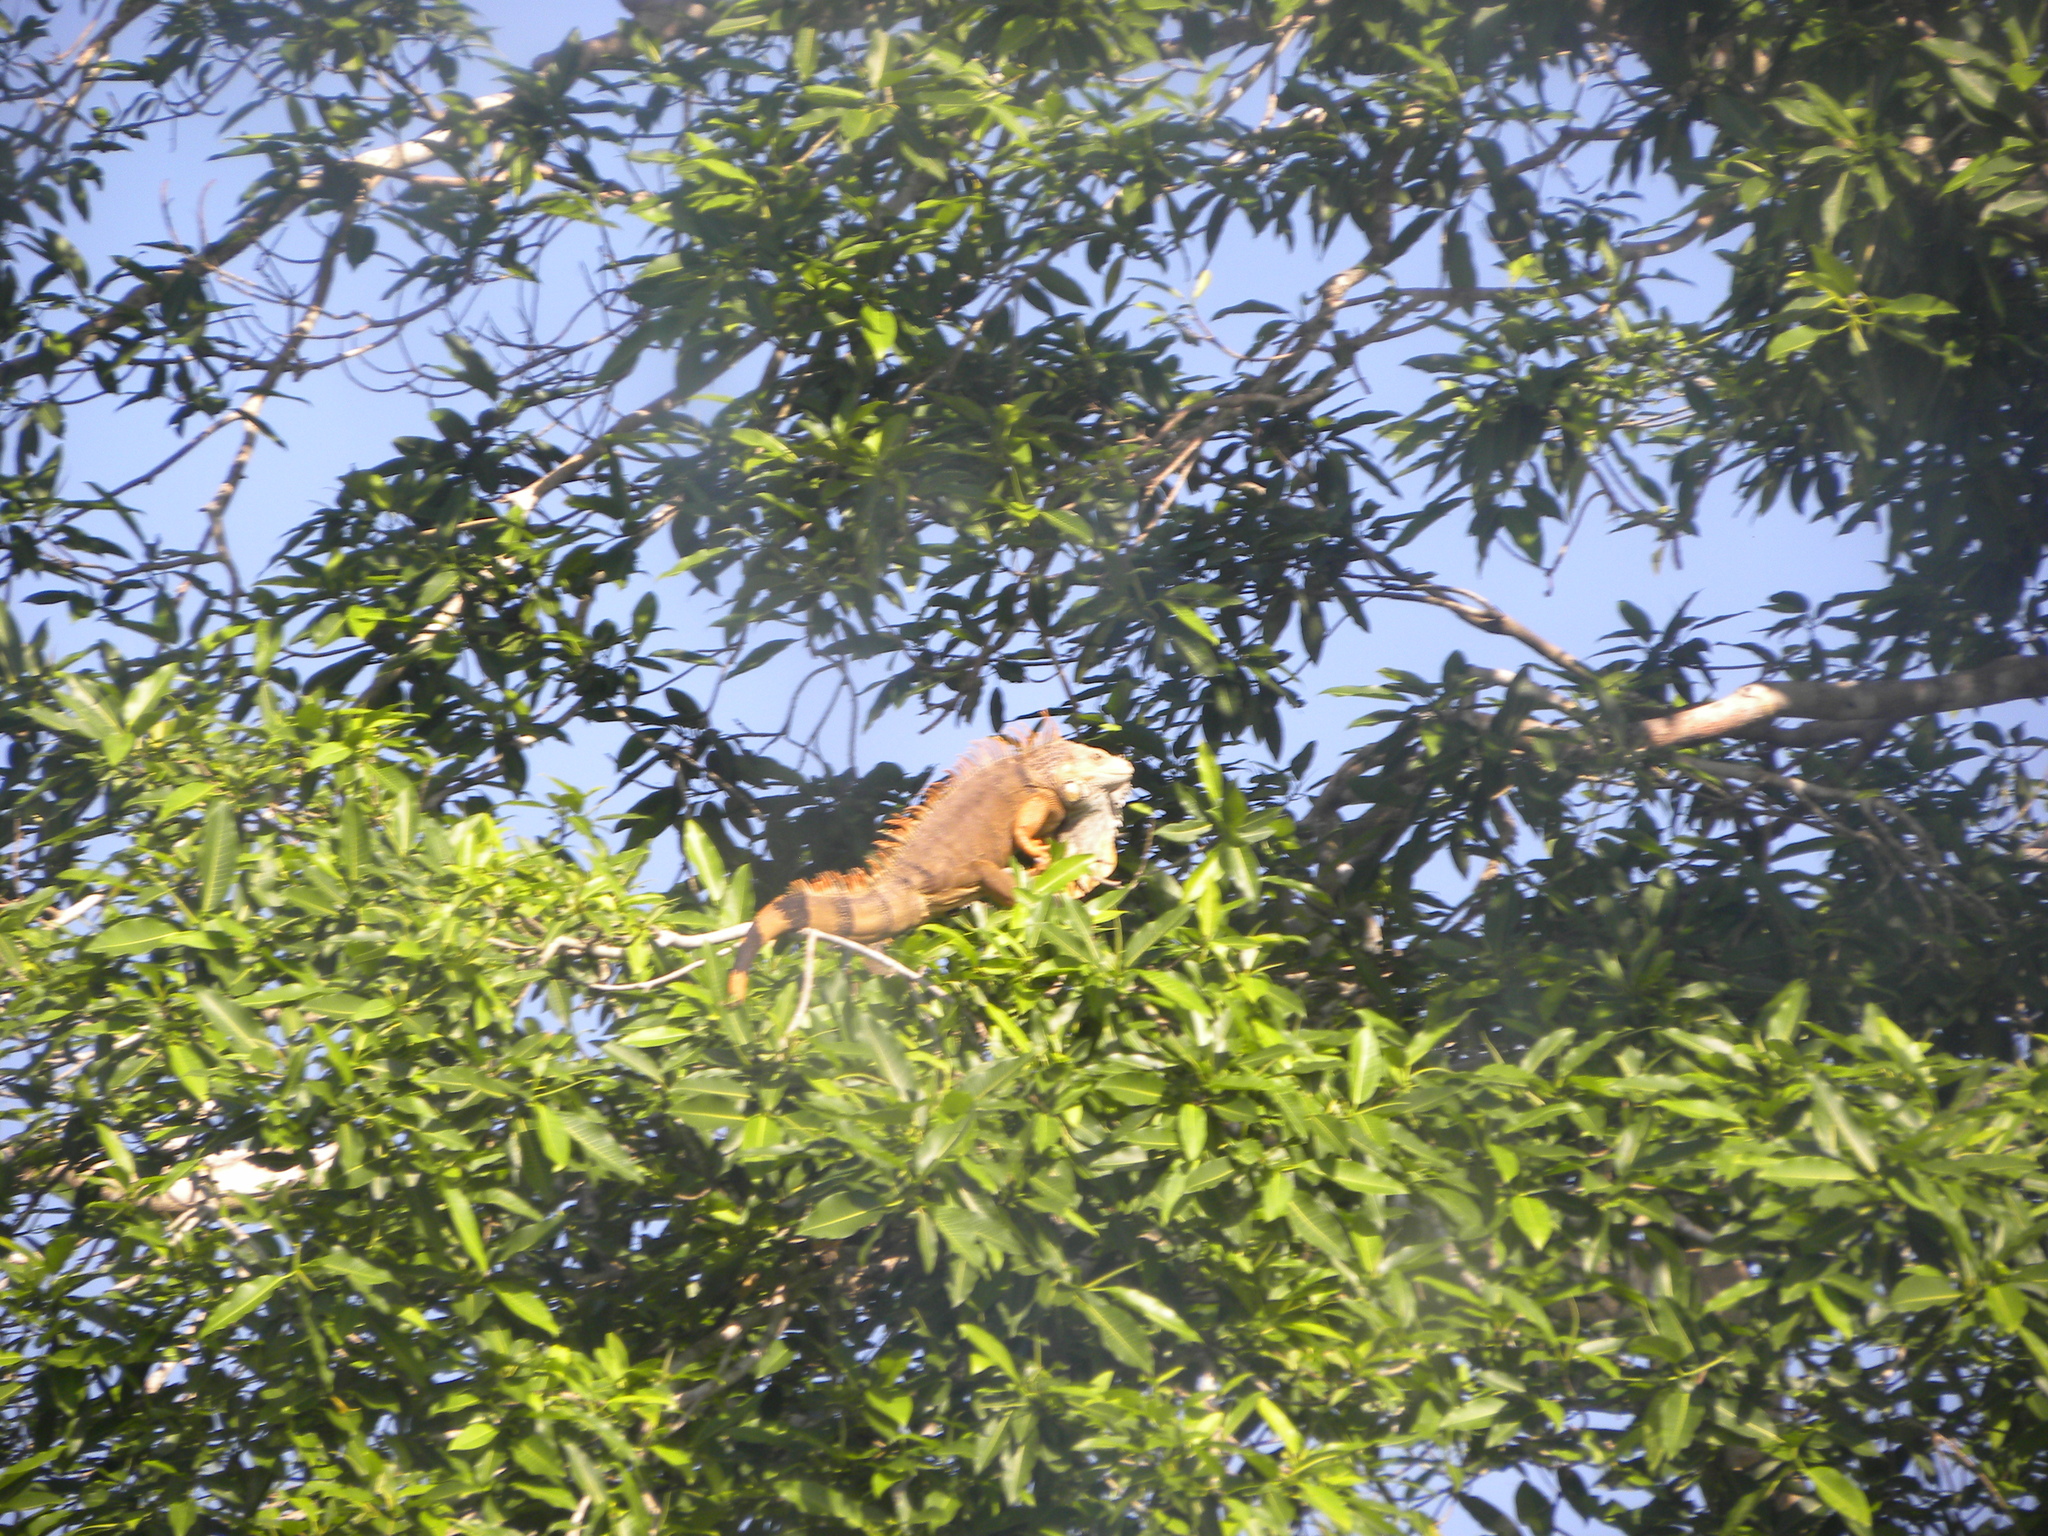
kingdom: Animalia
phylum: Chordata
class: Squamata
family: Iguanidae
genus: Iguana
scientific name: Iguana iguana
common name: Green iguana
